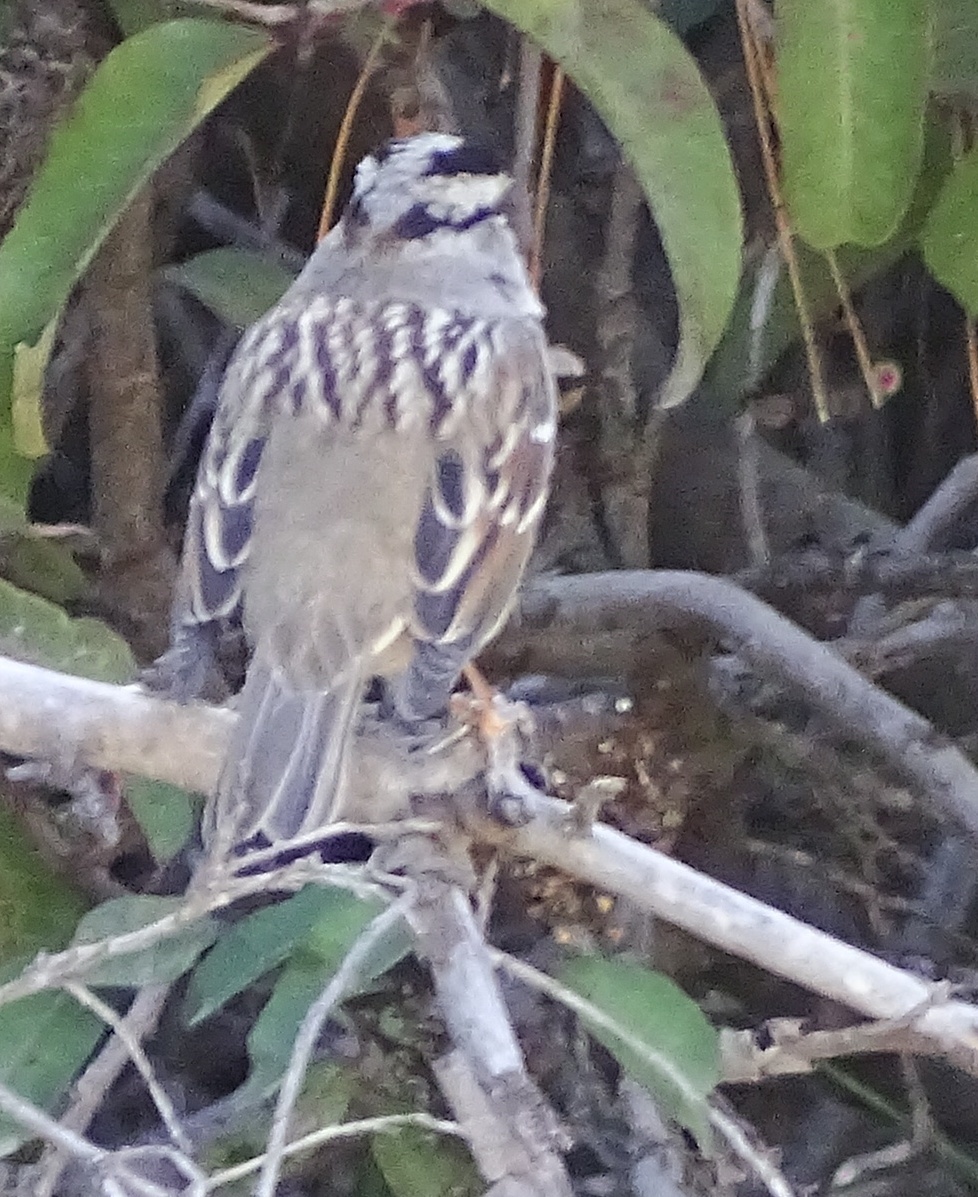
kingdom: Animalia
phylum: Chordata
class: Aves
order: Passeriformes
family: Passerellidae
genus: Zonotrichia
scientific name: Zonotrichia leucophrys
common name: White-crowned sparrow
